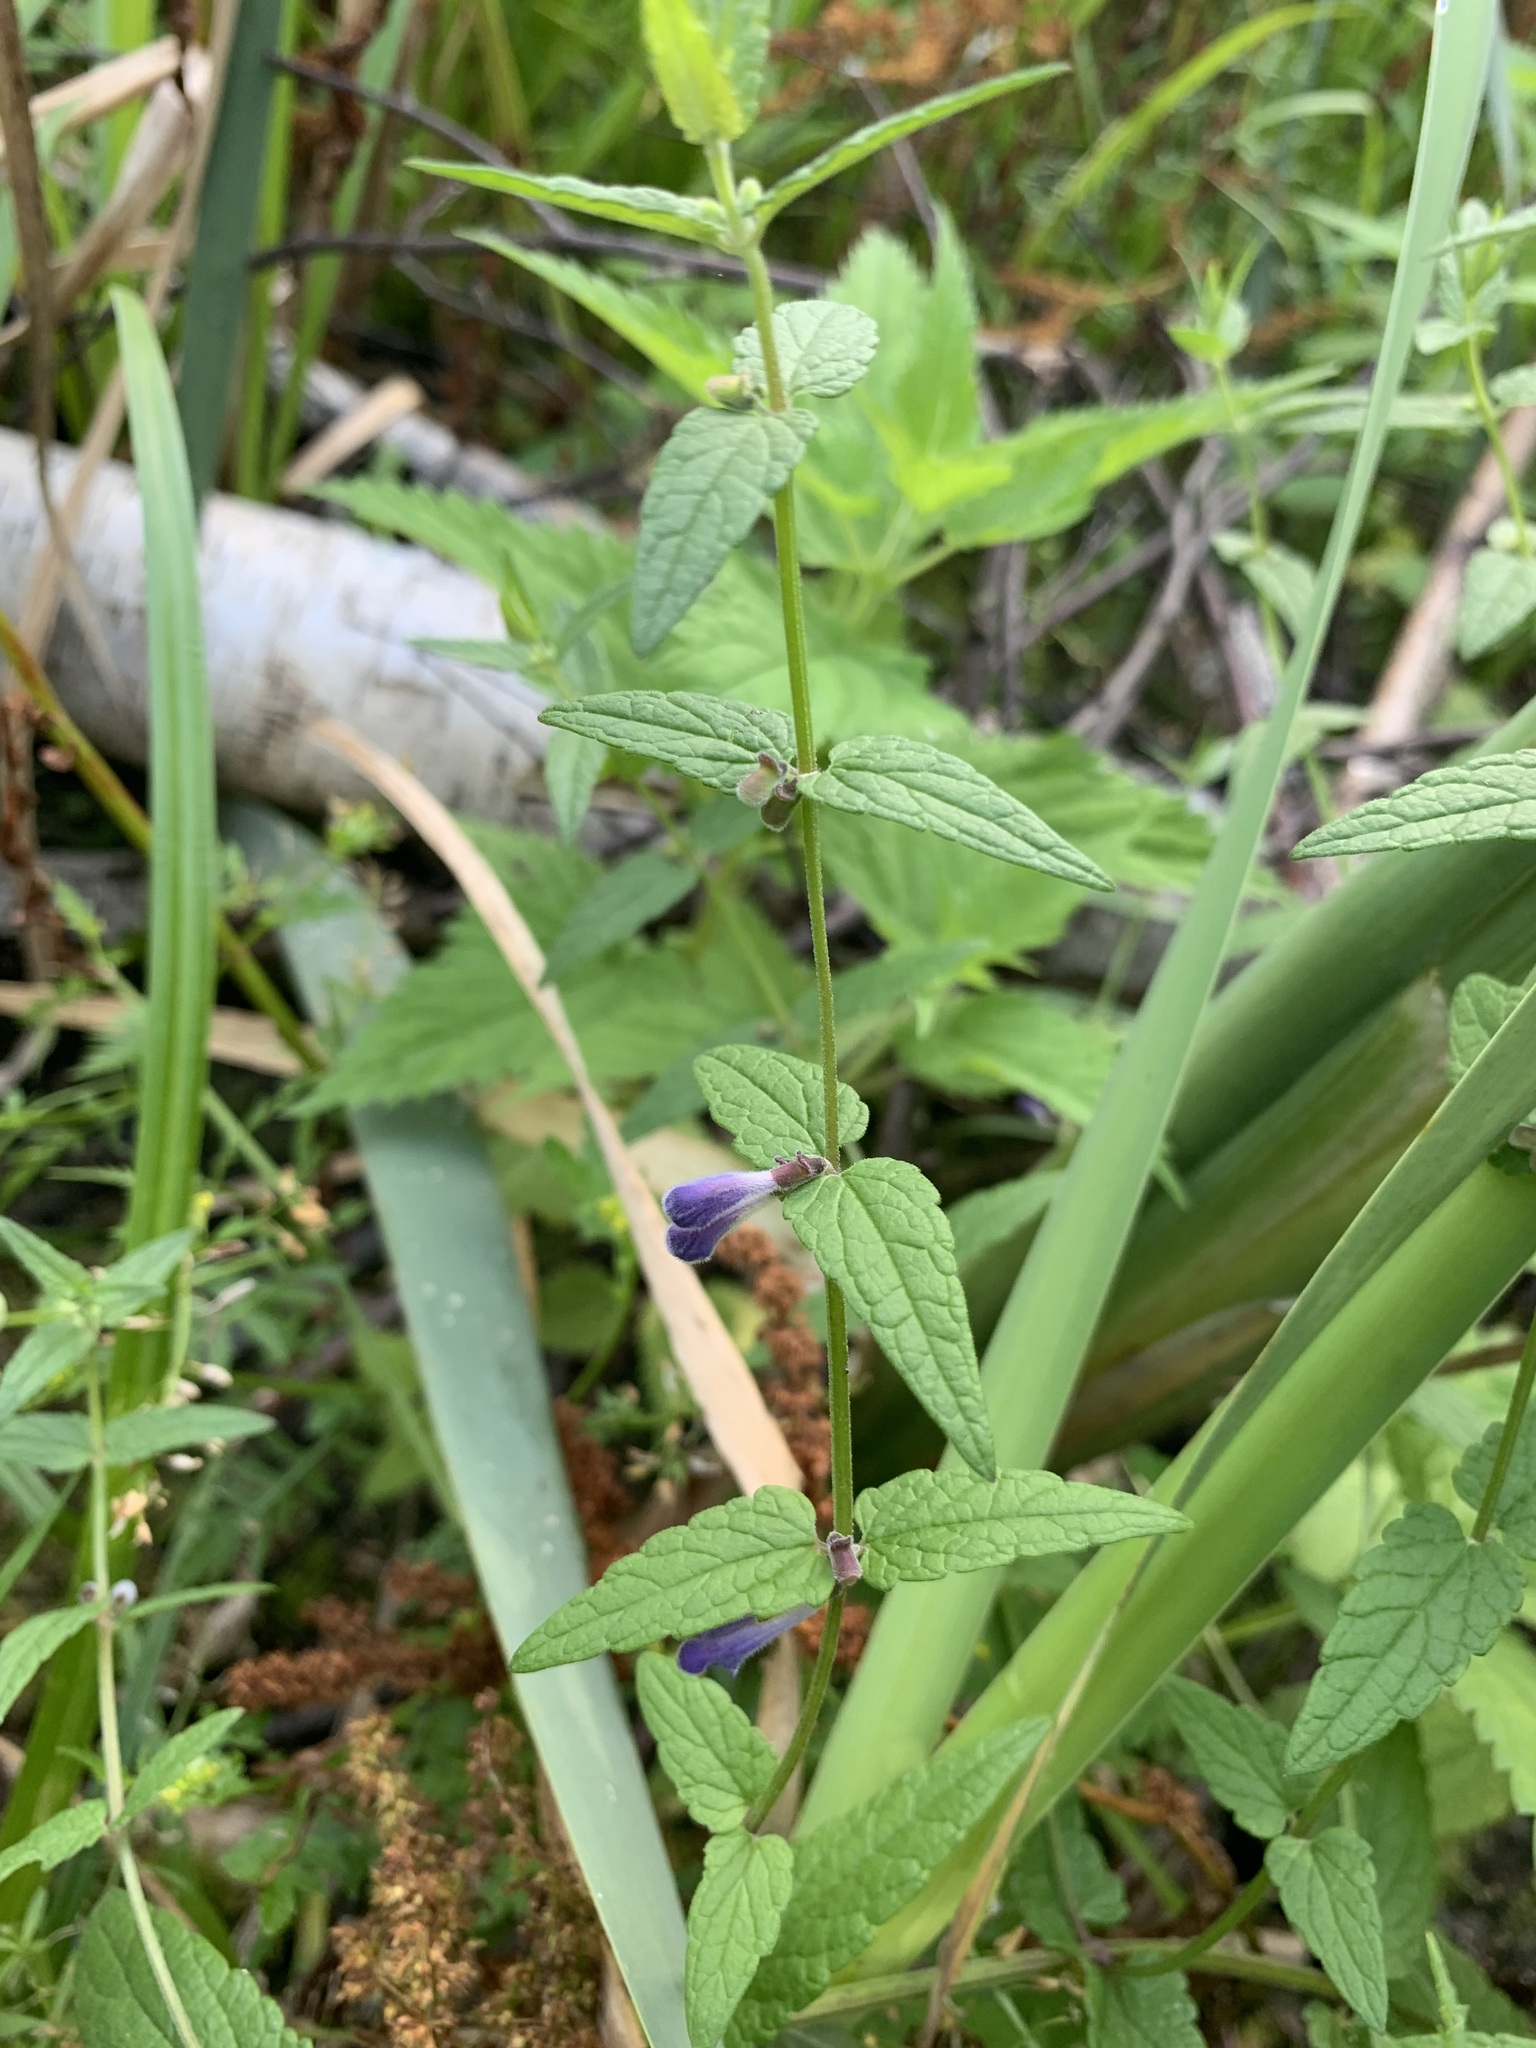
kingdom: Plantae
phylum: Tracheophyta
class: Magnoliopsida
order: Lamiales
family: Lamiaceae
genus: Scutellaria
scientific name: Scutellaria galericulata
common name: Skullcap
